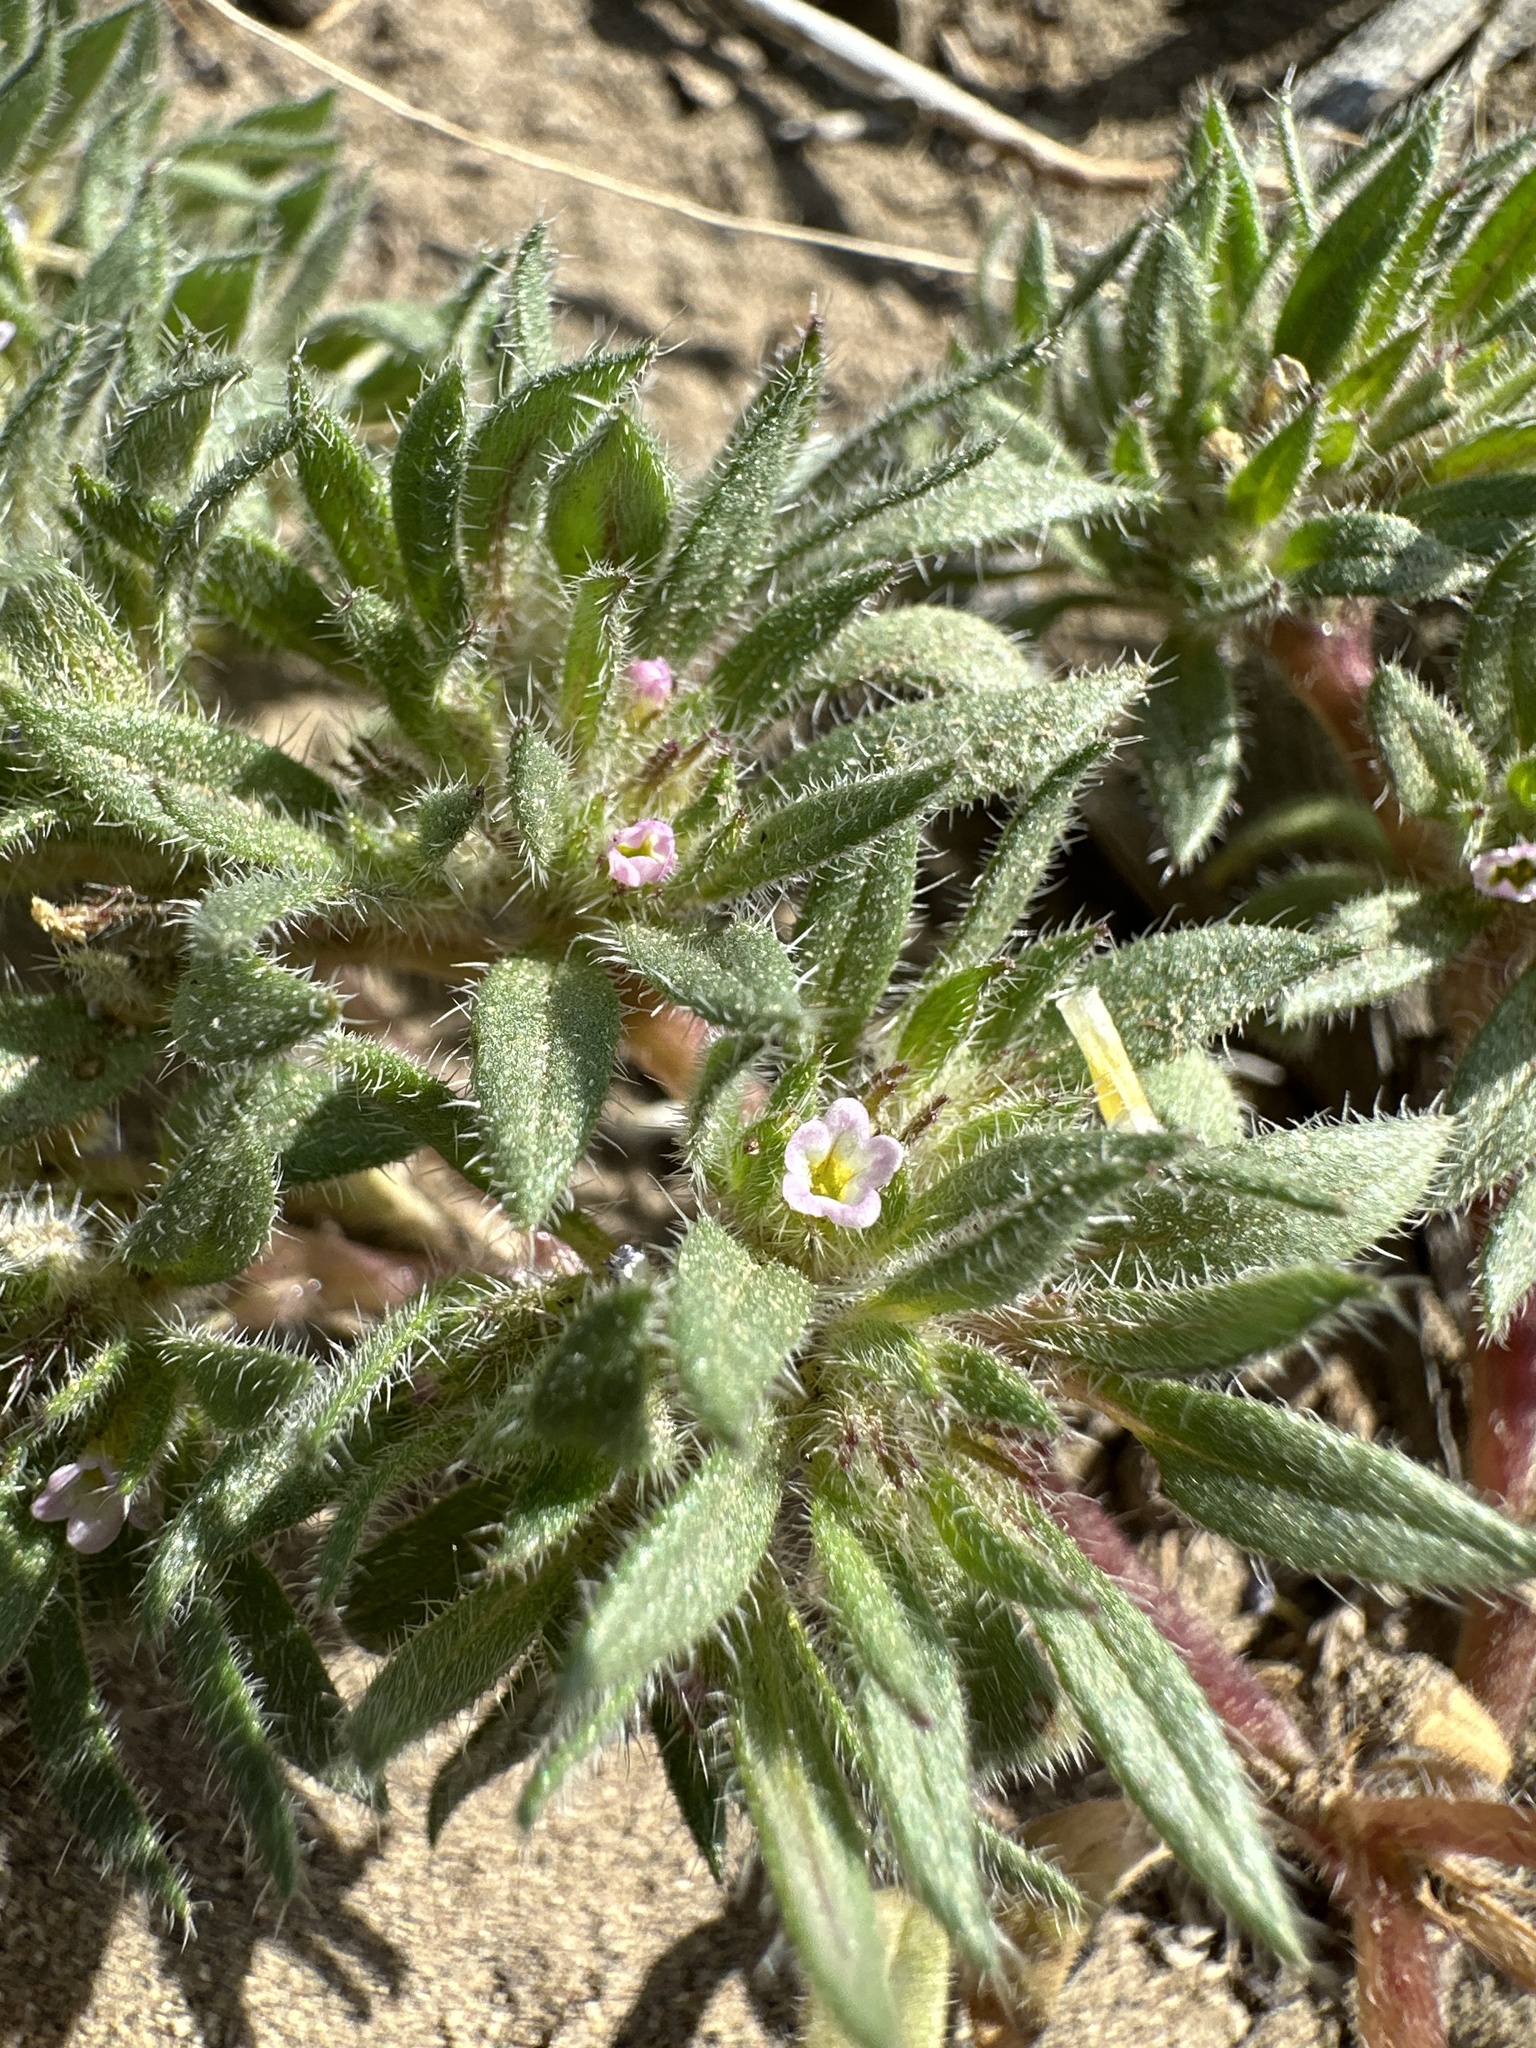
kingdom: Plantae
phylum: Tracheophyta
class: Magnoliopsida
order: Boraginales
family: Namaceae
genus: Nama
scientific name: Nama densa
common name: Leafy nama
